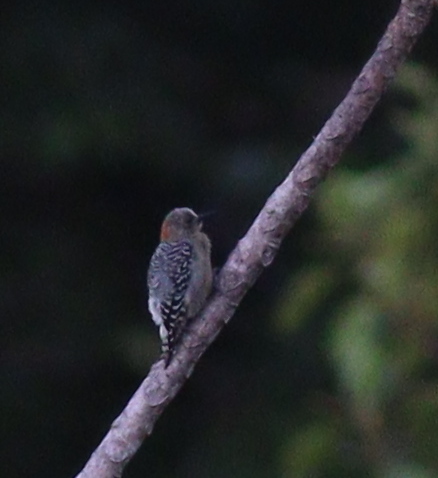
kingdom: Animalia
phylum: Chordata
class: Aves
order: Piciformes
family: Picidae
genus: Melanerpes
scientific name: Melanerpes rubricapillus
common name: Red-crowned woodpecker
